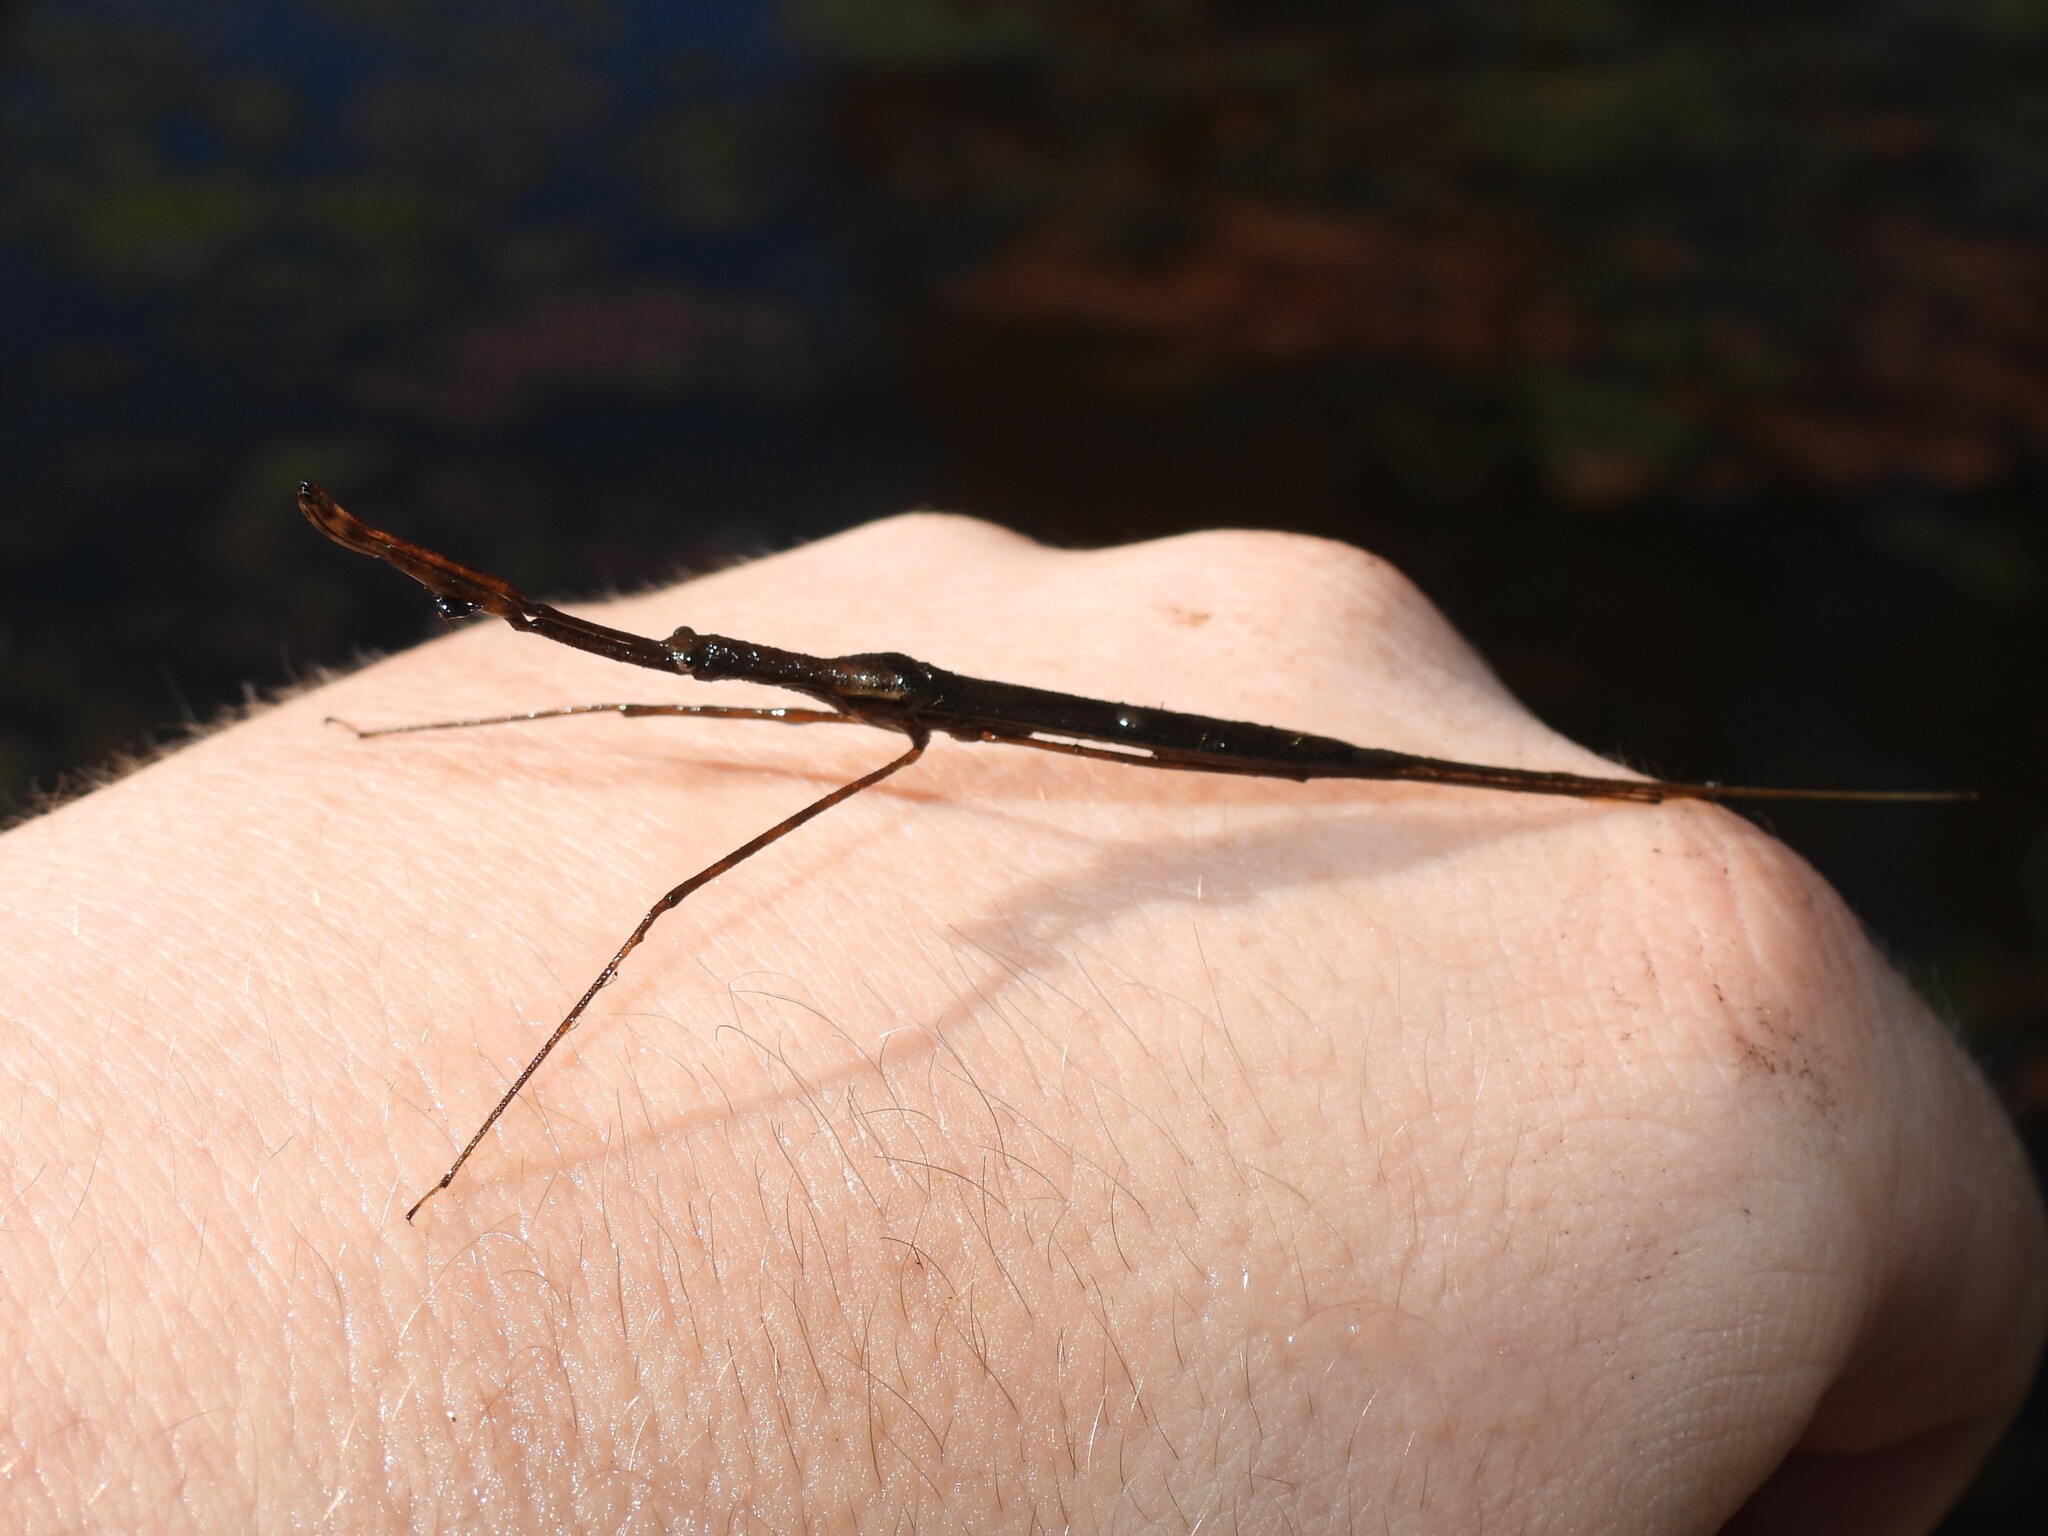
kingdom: Animalia
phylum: Arthropoda
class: Insecta
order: Hemiptera
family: Nepidae
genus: Ranatra
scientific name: Ranatra
